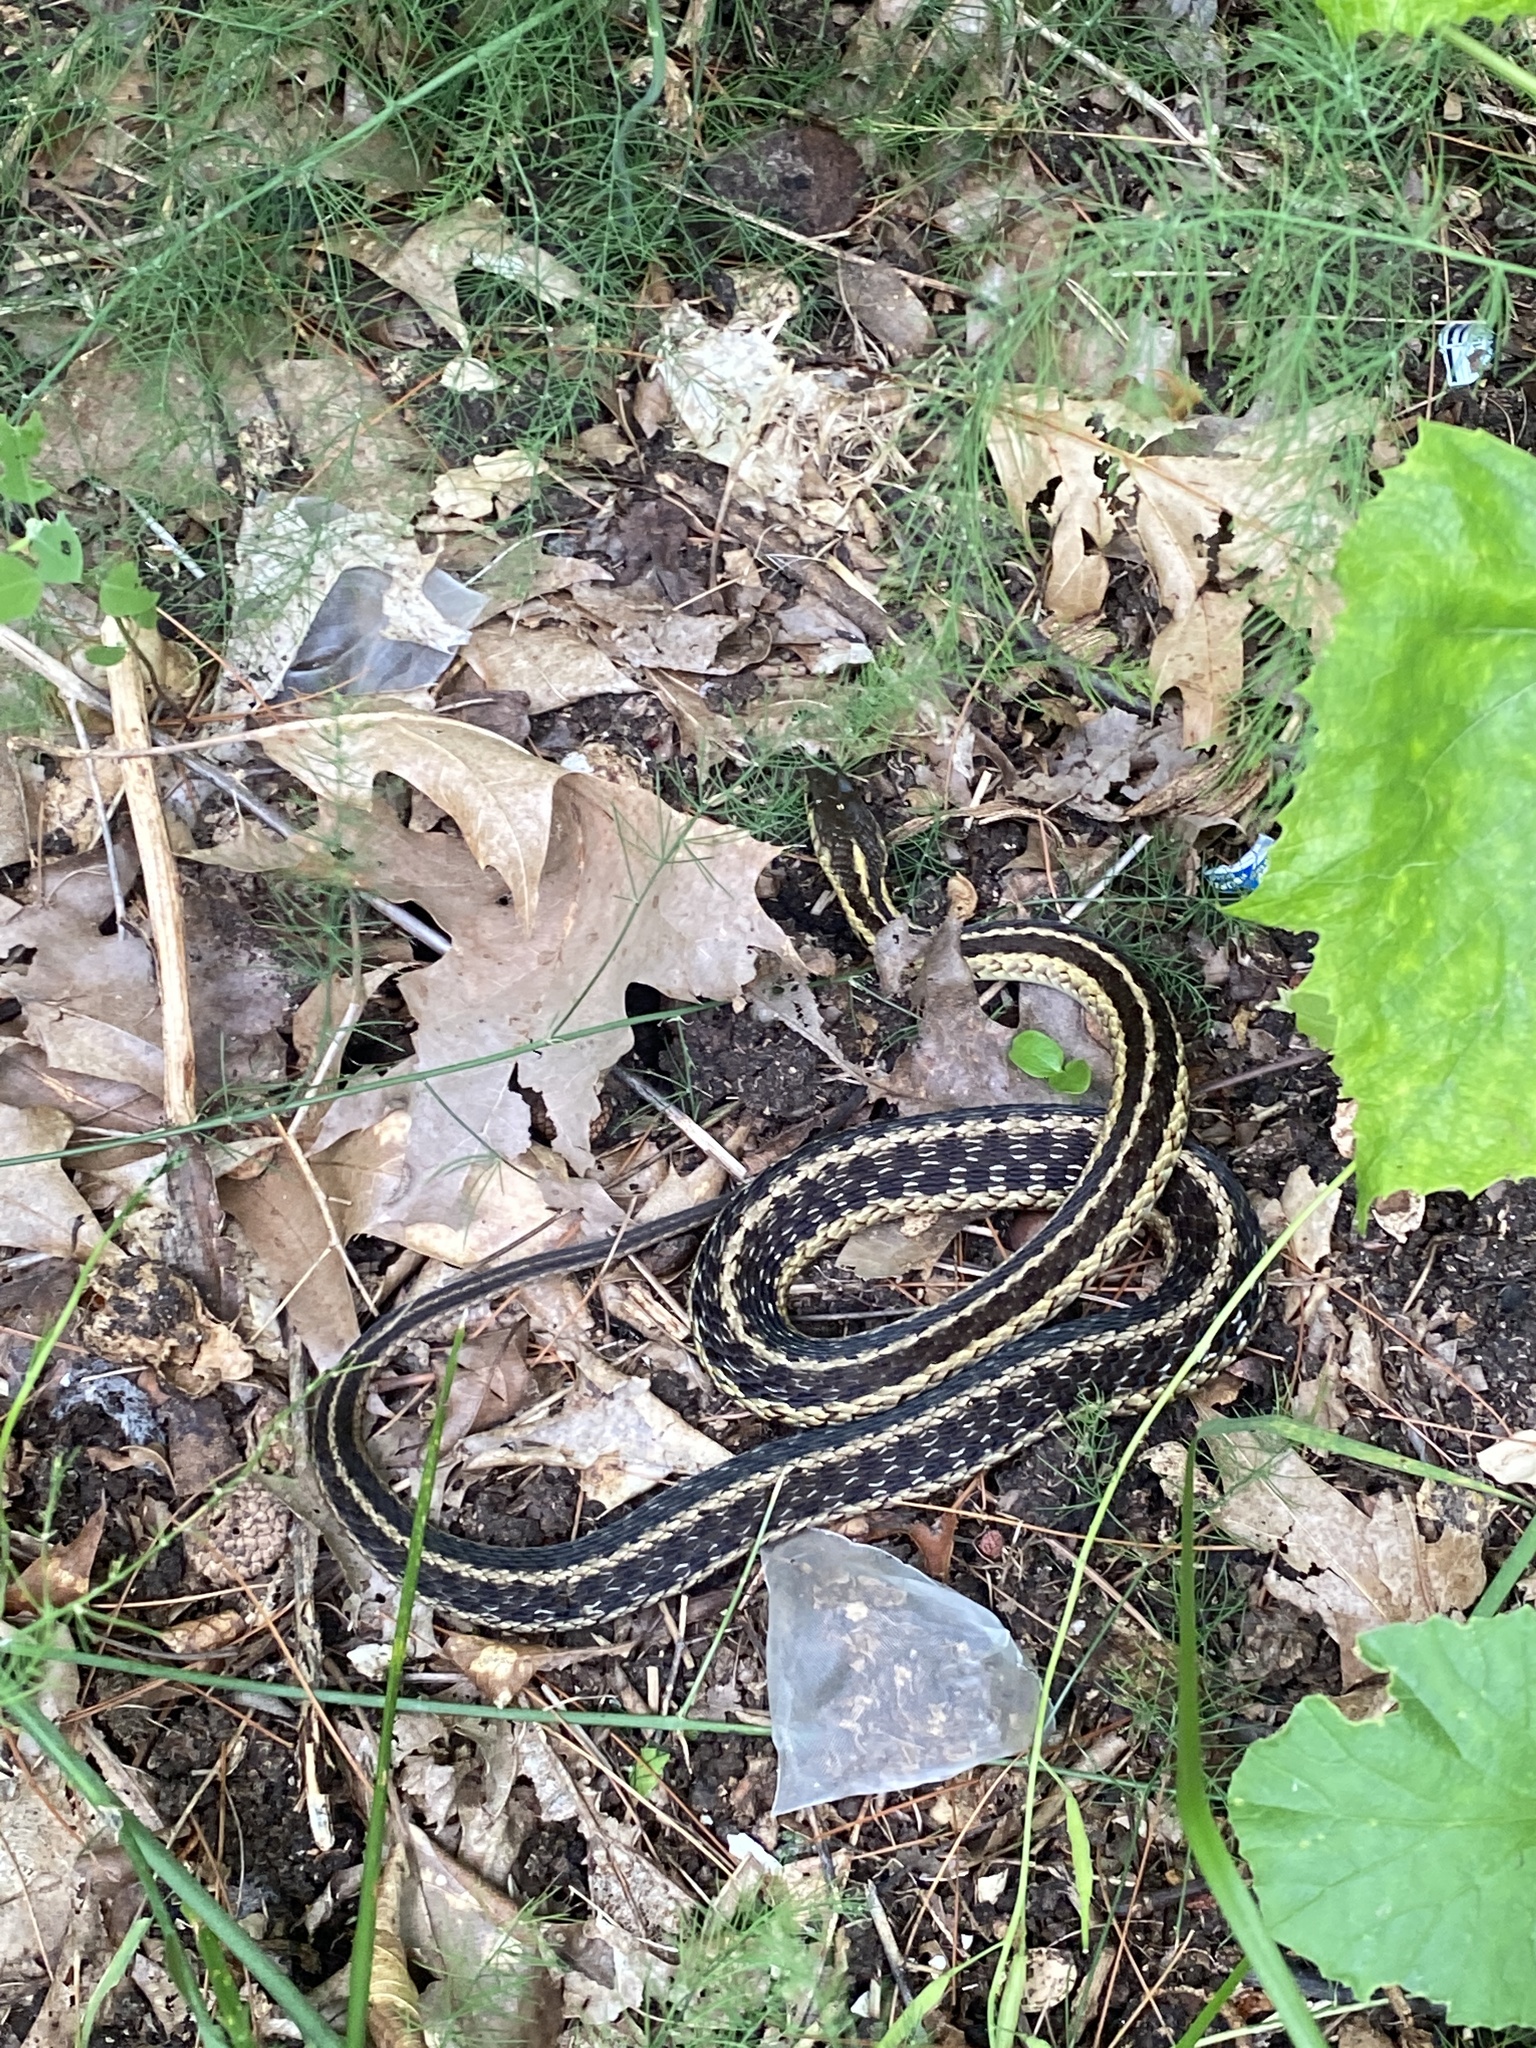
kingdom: Animalia
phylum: Chordata
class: Squamata
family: Colubridae
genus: Thamnophis
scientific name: Thamnophis sirtalis
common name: Common garter snake
